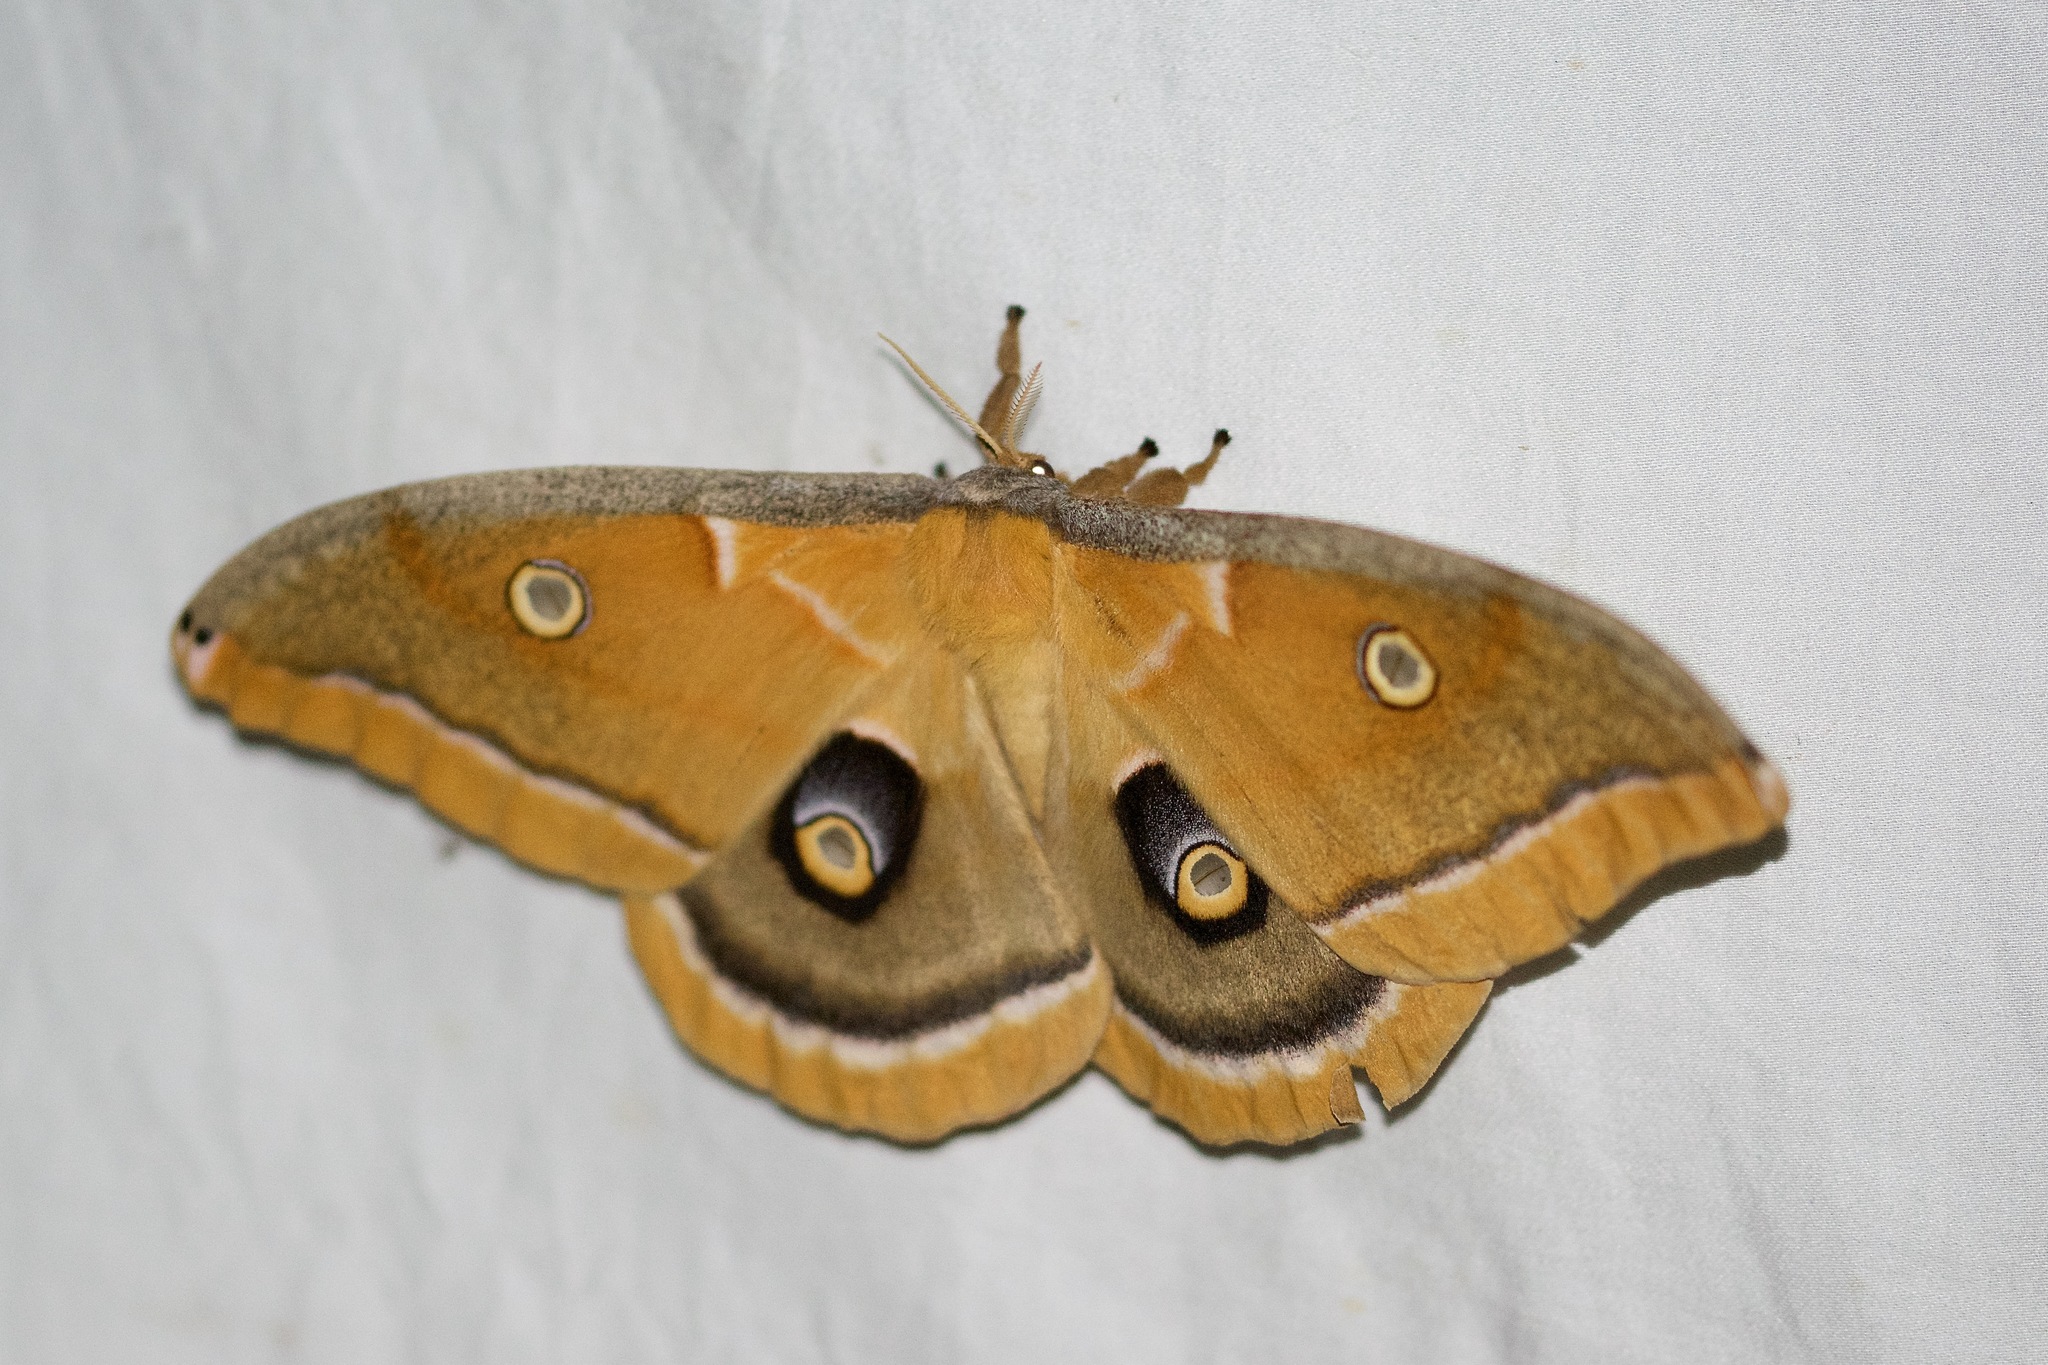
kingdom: Animalia
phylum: Arthropoda
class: Insecta
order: Lepidoptera
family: Saturniidae
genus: Antheraea
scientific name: Antheraea polyphemus
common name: Polyphemus moth
